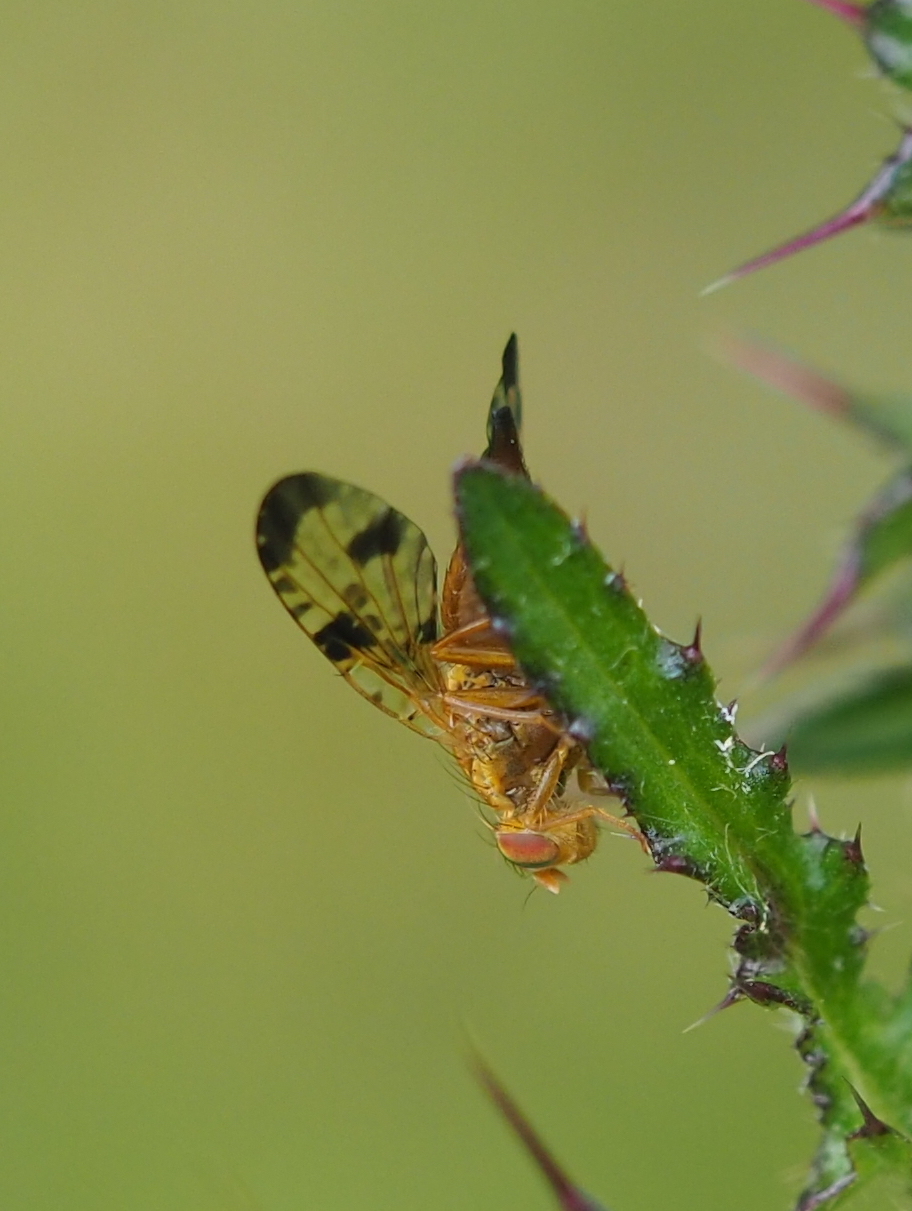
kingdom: Animalia
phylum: Arthropoda
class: Insecta
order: Diptera
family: Tephritidae
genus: Xyphosia
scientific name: Xyphosia miliaria
